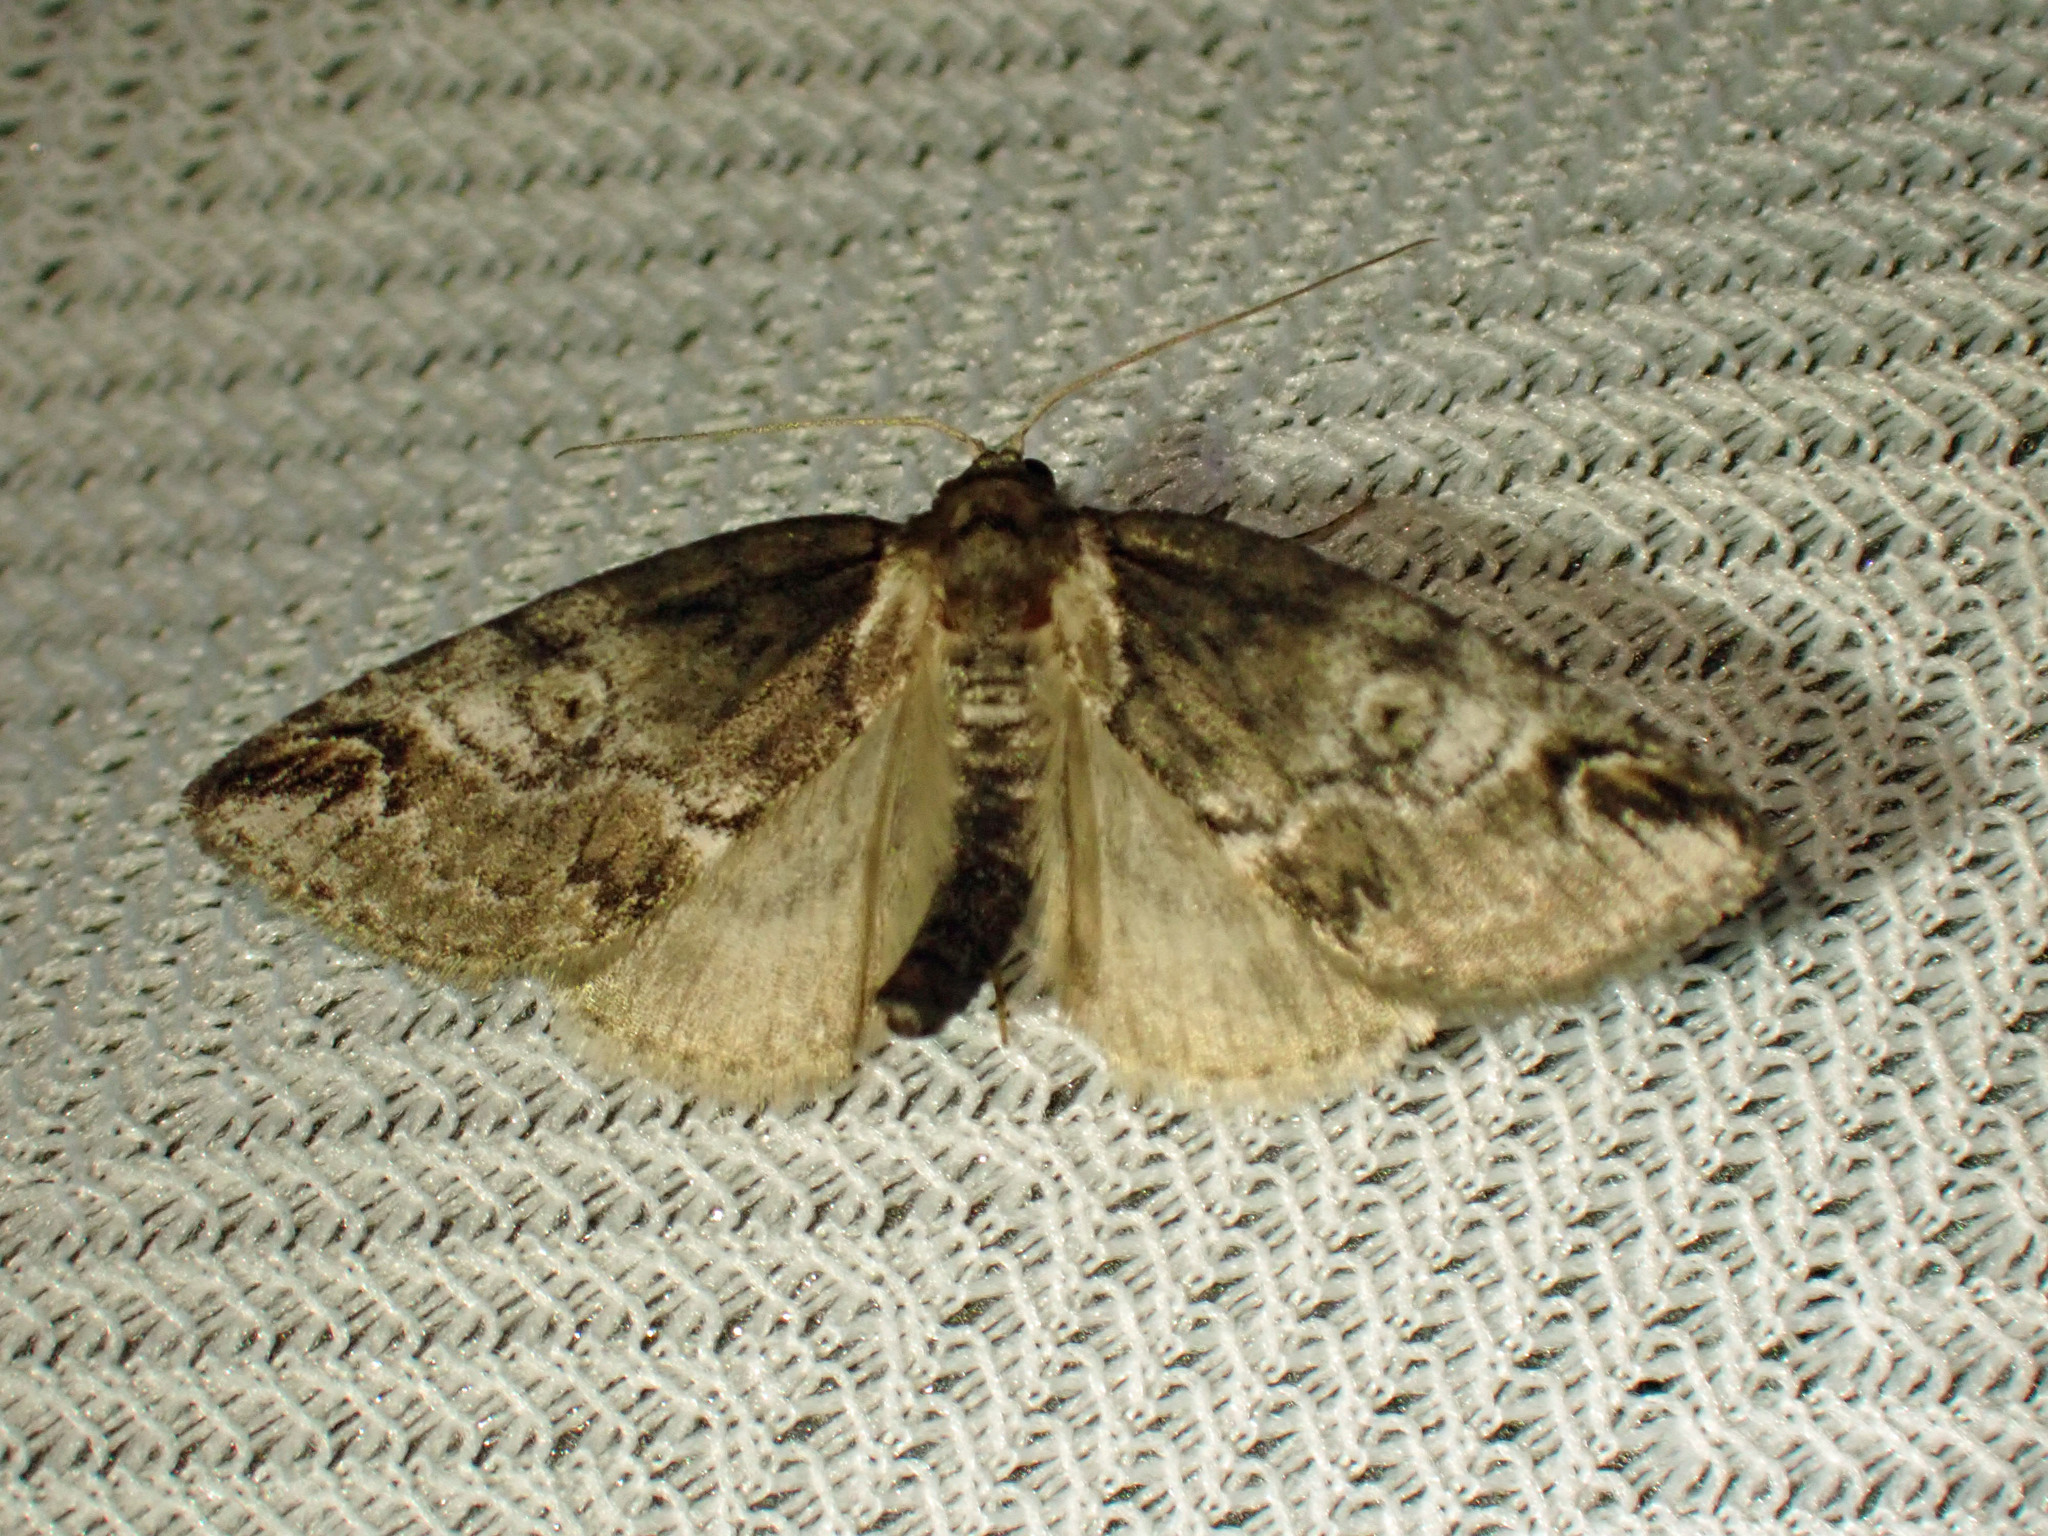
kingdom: Animalia
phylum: Arthropoda
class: Insecta
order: Lepidoptera
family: Nolidae
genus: Baileya
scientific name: Baileya ophthalmica
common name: Eyed baileya moth
